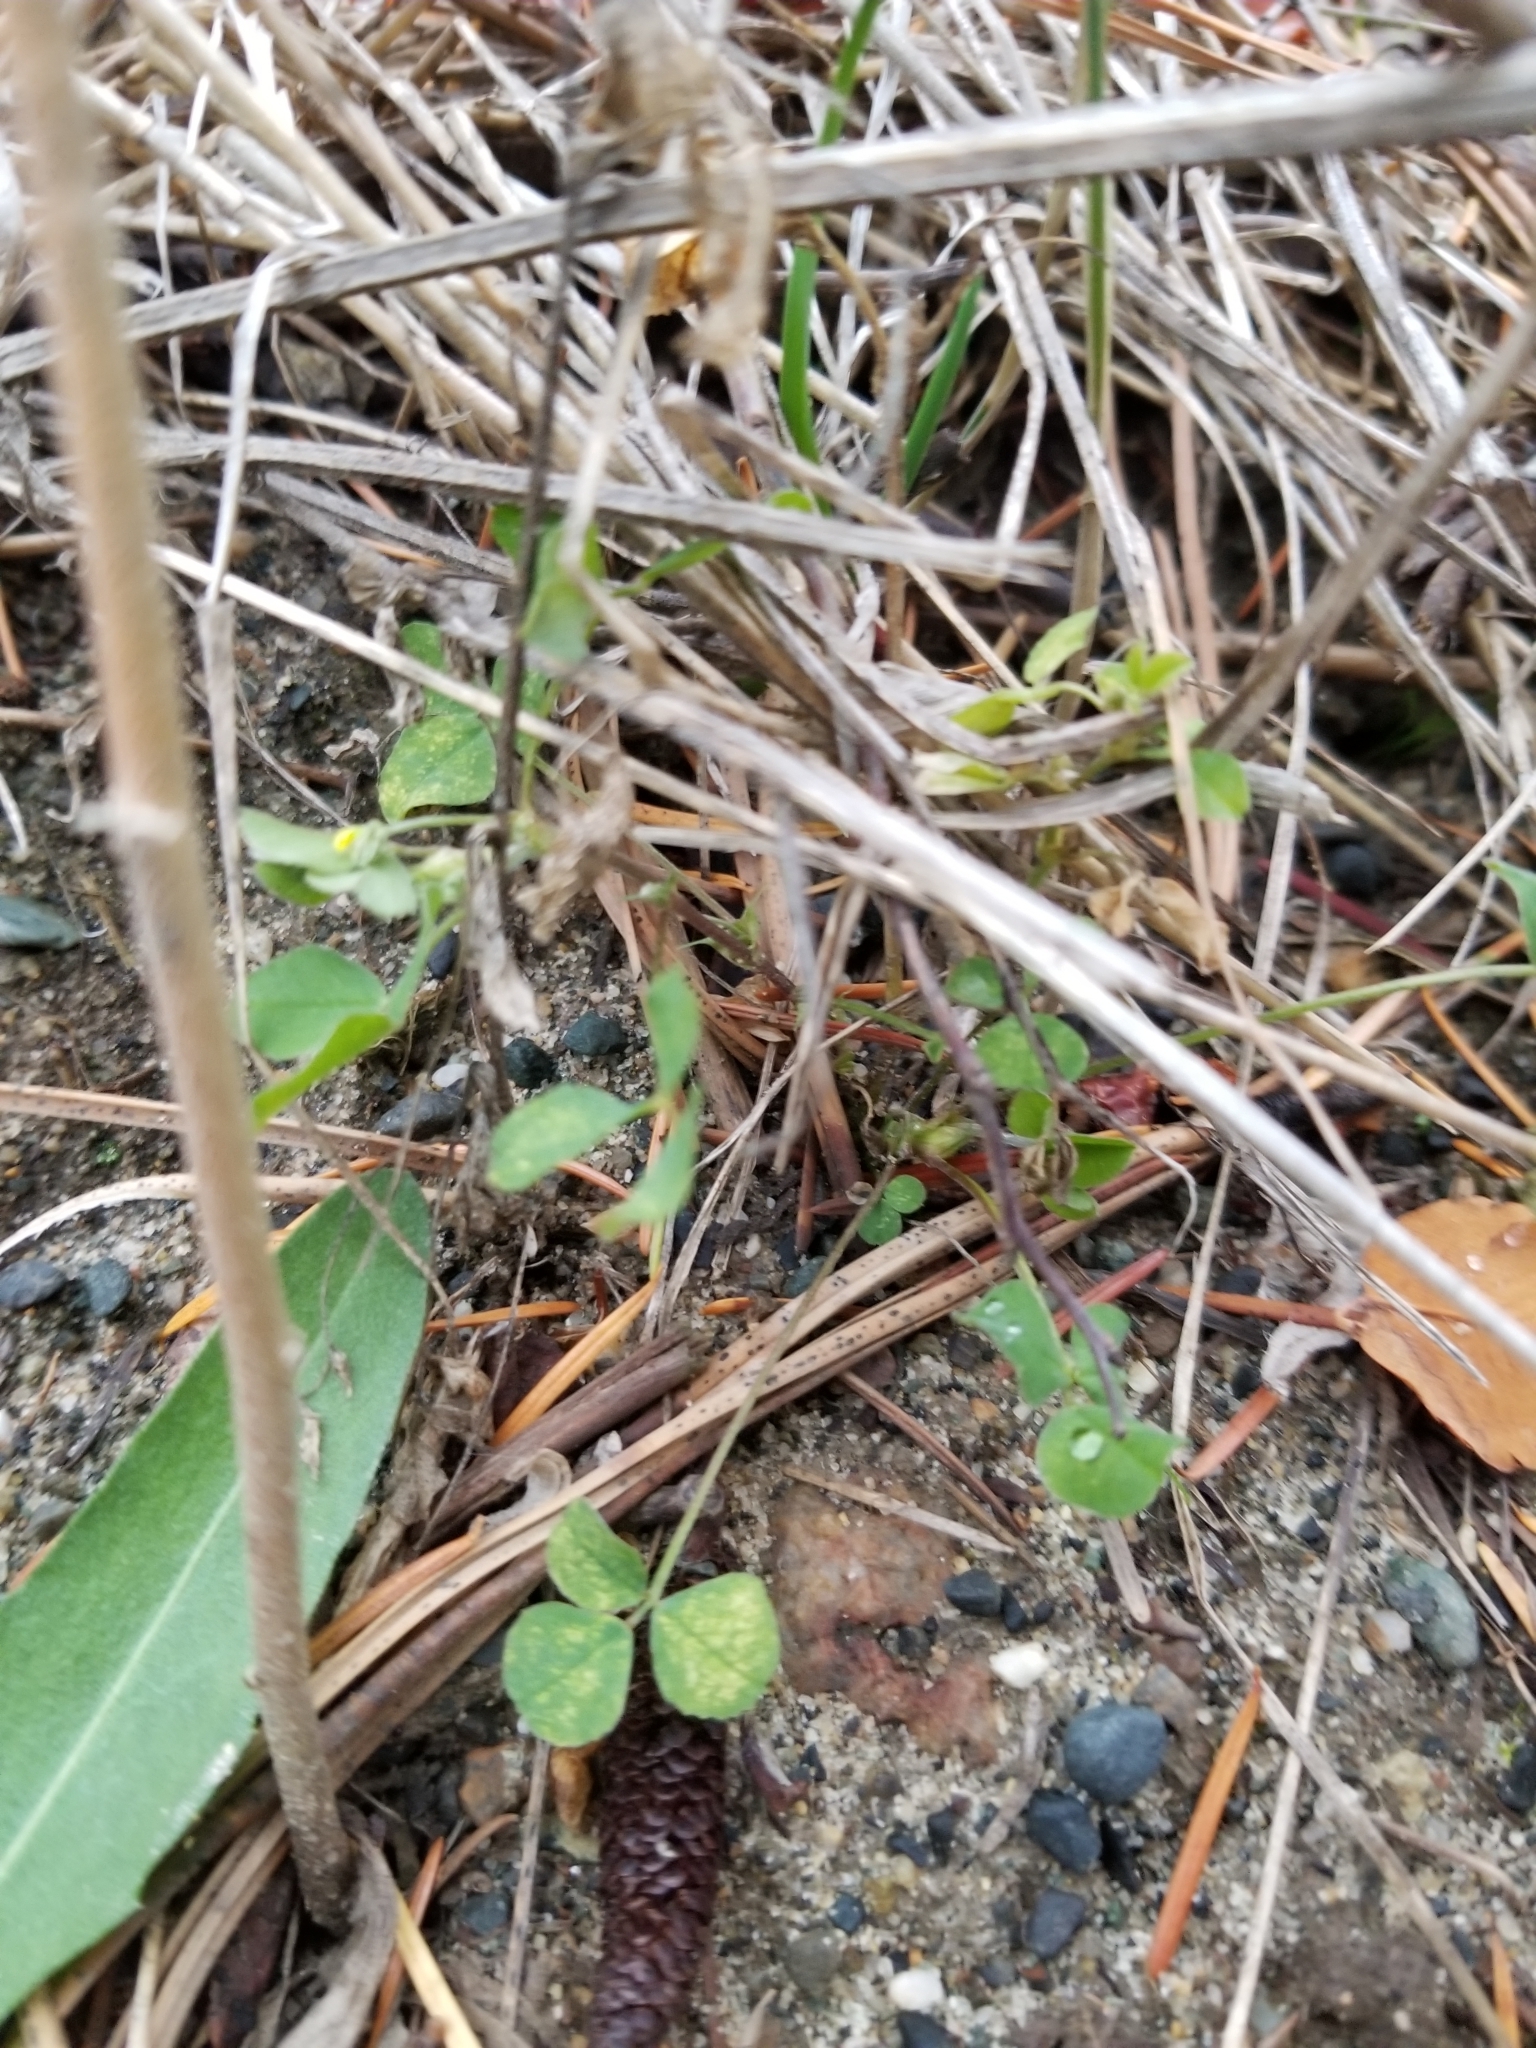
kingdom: Plantae
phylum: Tracheophyta
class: Magnoliopsida
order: Fabales
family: Fabaceae
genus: Medicago
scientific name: Medicago lupulina
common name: Black medick
